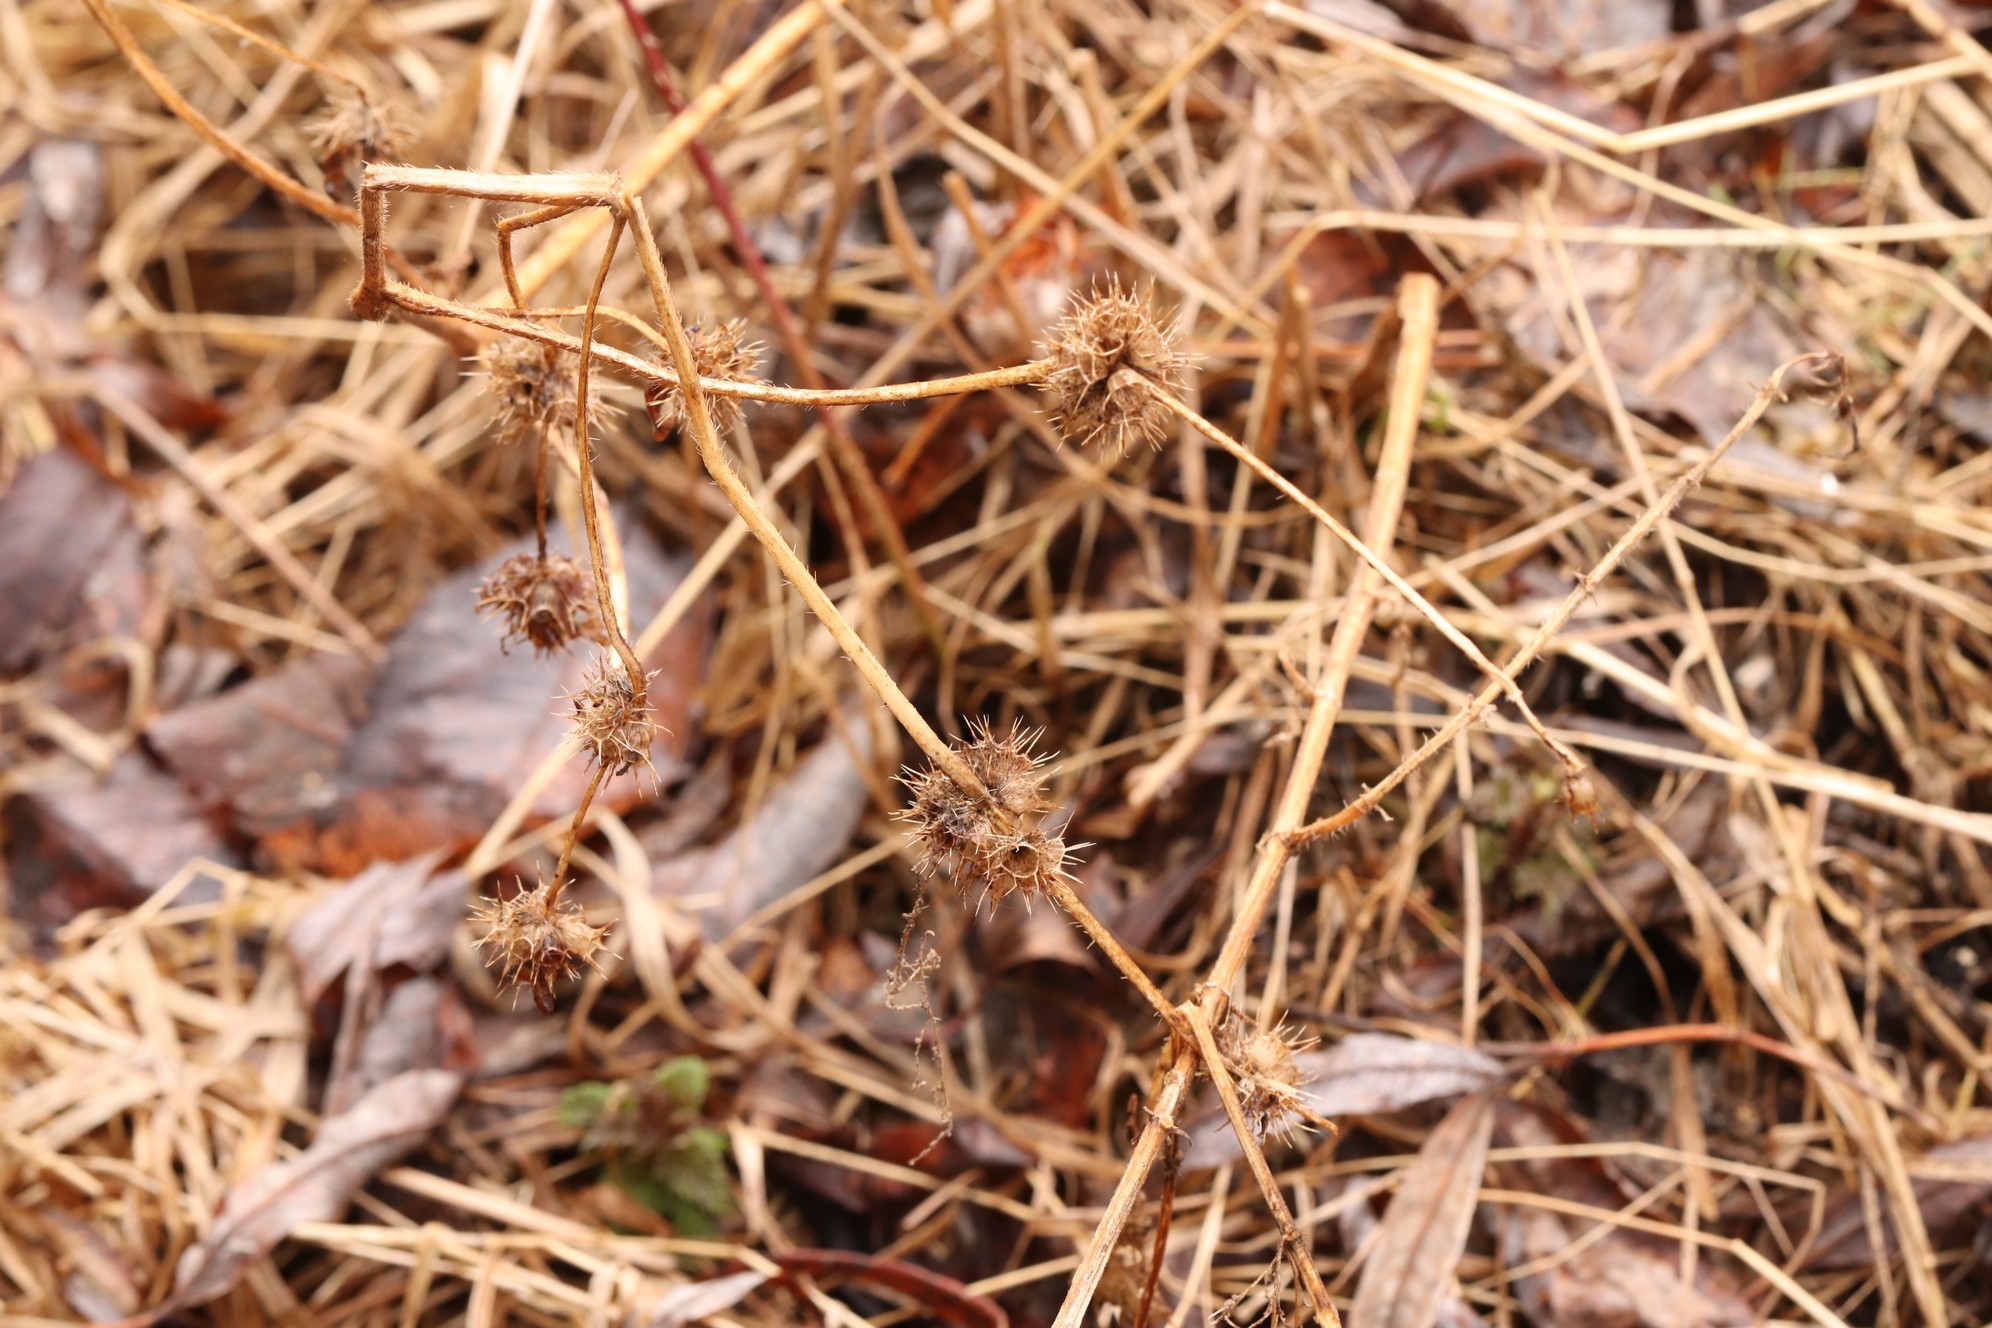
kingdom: Plantae
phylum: Tracheophyta
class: Magnoliopsida
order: Lamiales
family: Lamiaceae
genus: Lamium
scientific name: Lamium album
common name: White dead-nettle
